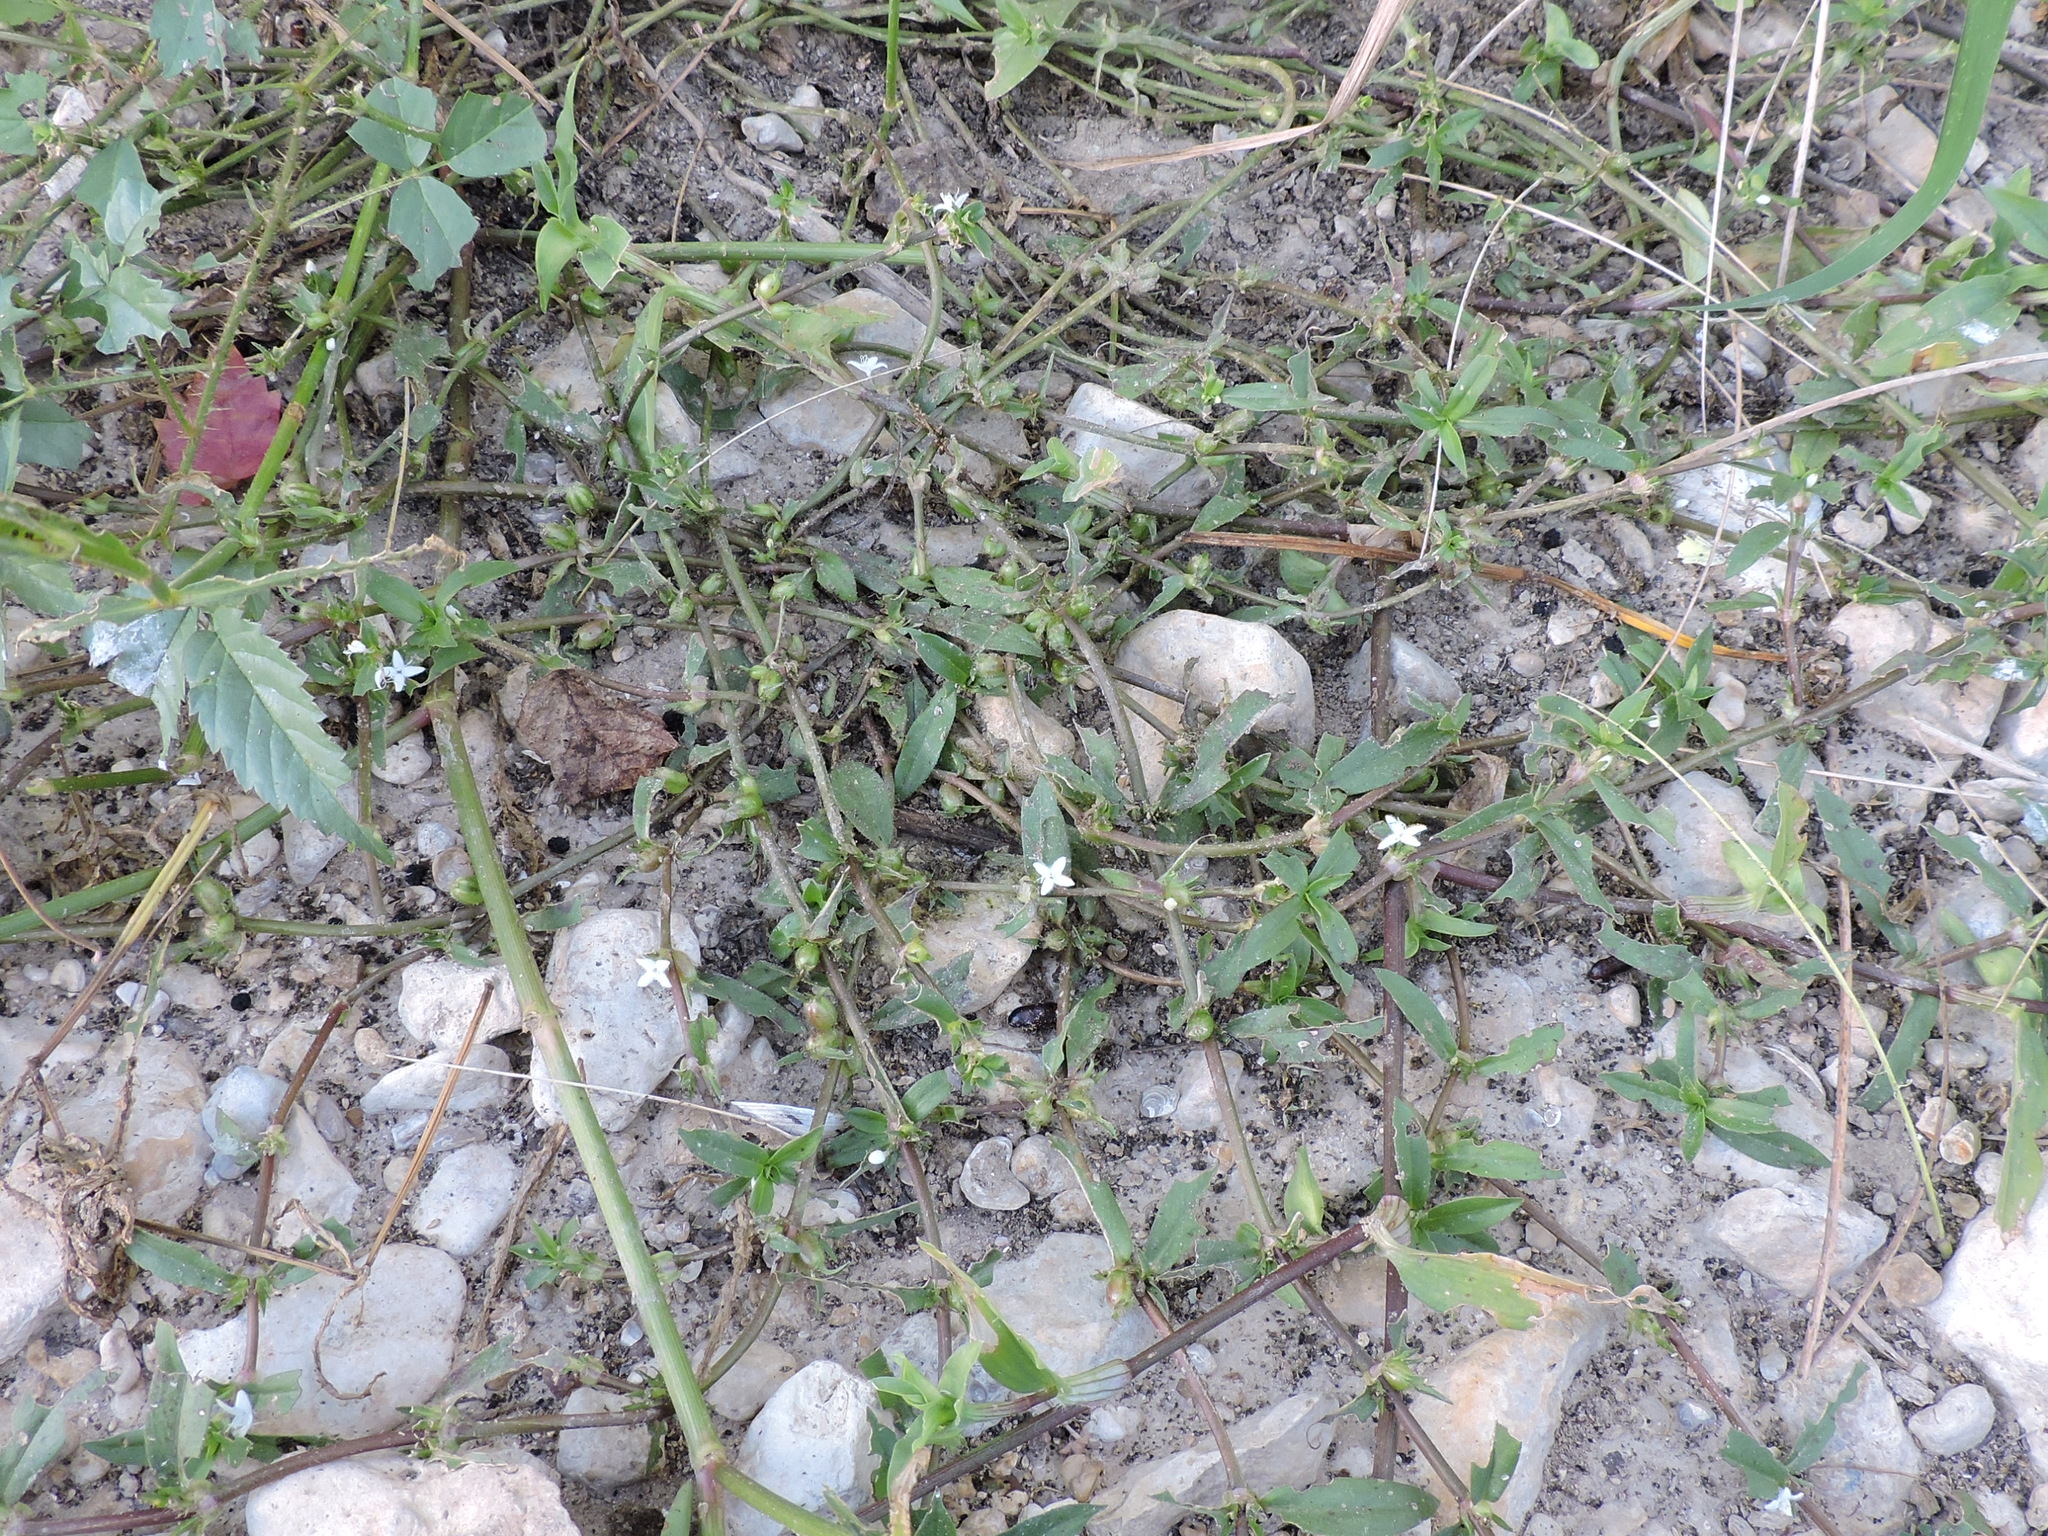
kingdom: Plantae
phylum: Tracheophyta
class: Magnoliopsida
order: Gentianales
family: Rubiaceae
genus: Diodia
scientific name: Diodia virginiana
